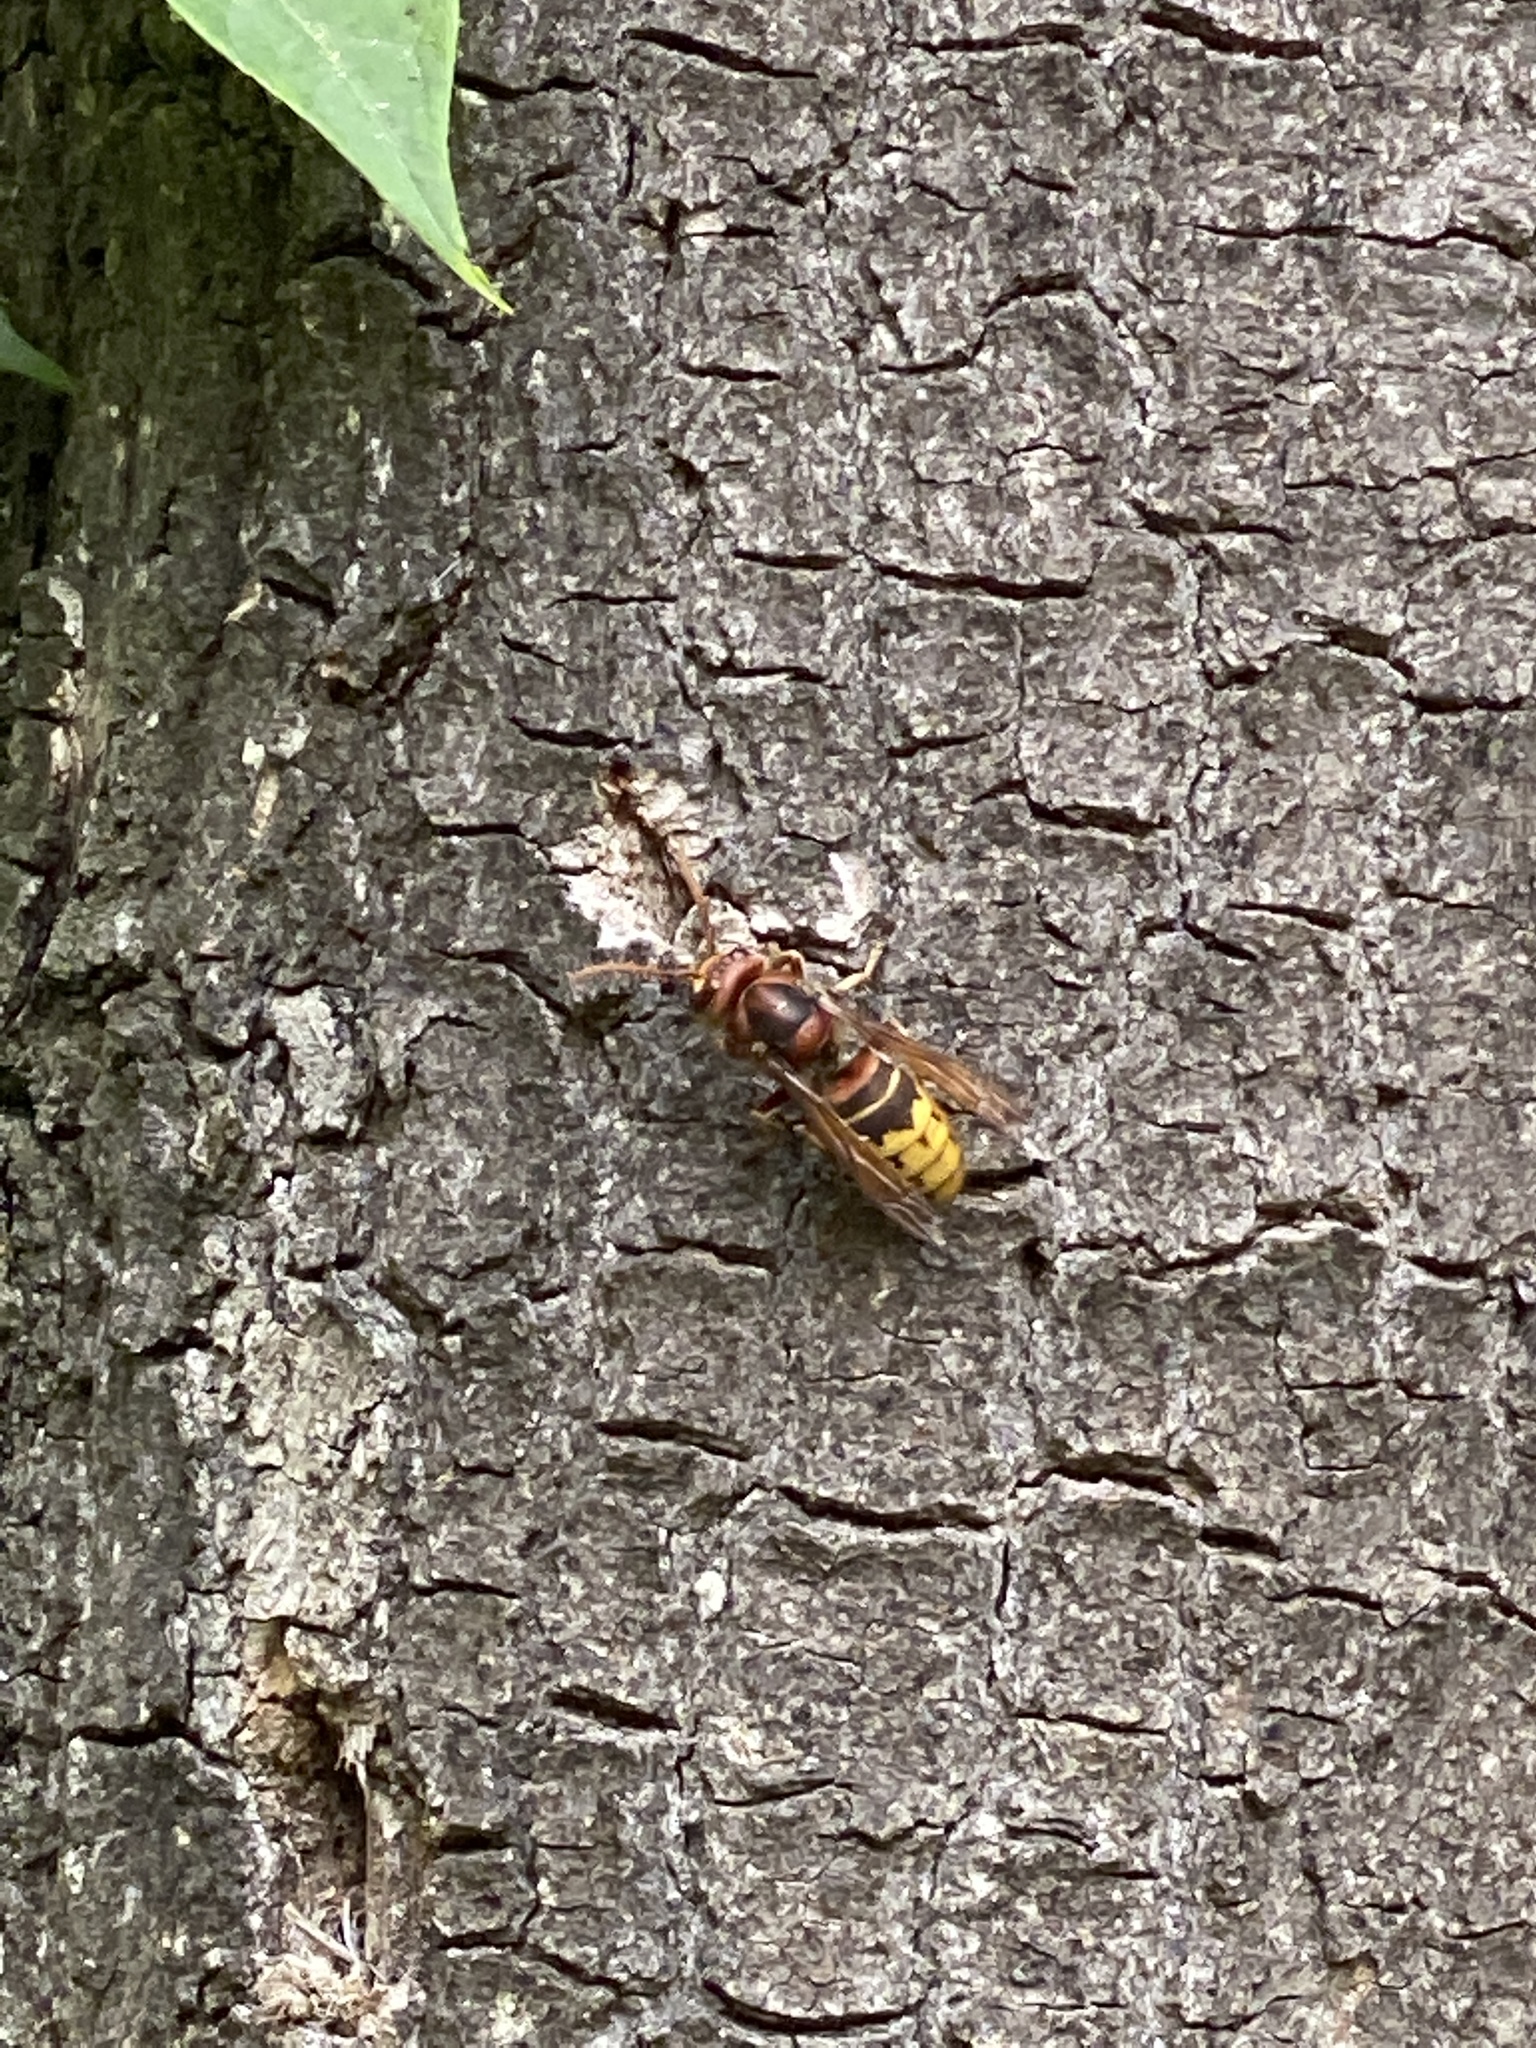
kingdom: Animalia
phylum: Arthropoda
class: Insecta
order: Hymenoptera
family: Vespidae
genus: Vespa
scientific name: Vespa crabro
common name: Hornet
